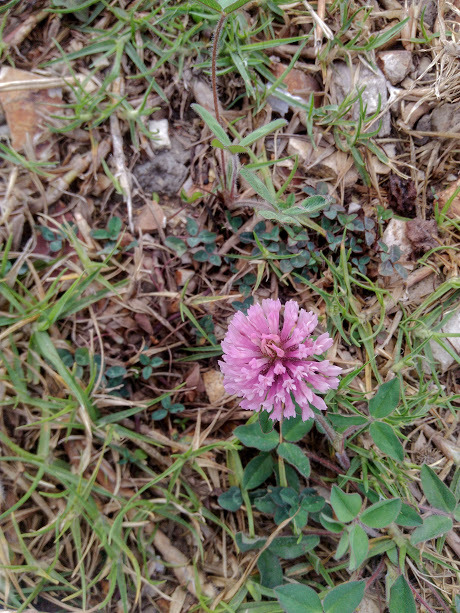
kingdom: Plantae
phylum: Tracheophyta
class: Magnoliopsida
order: Fabales
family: Fabaceae
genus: Trifolium
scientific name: Trifolium pratense
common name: Red clover
